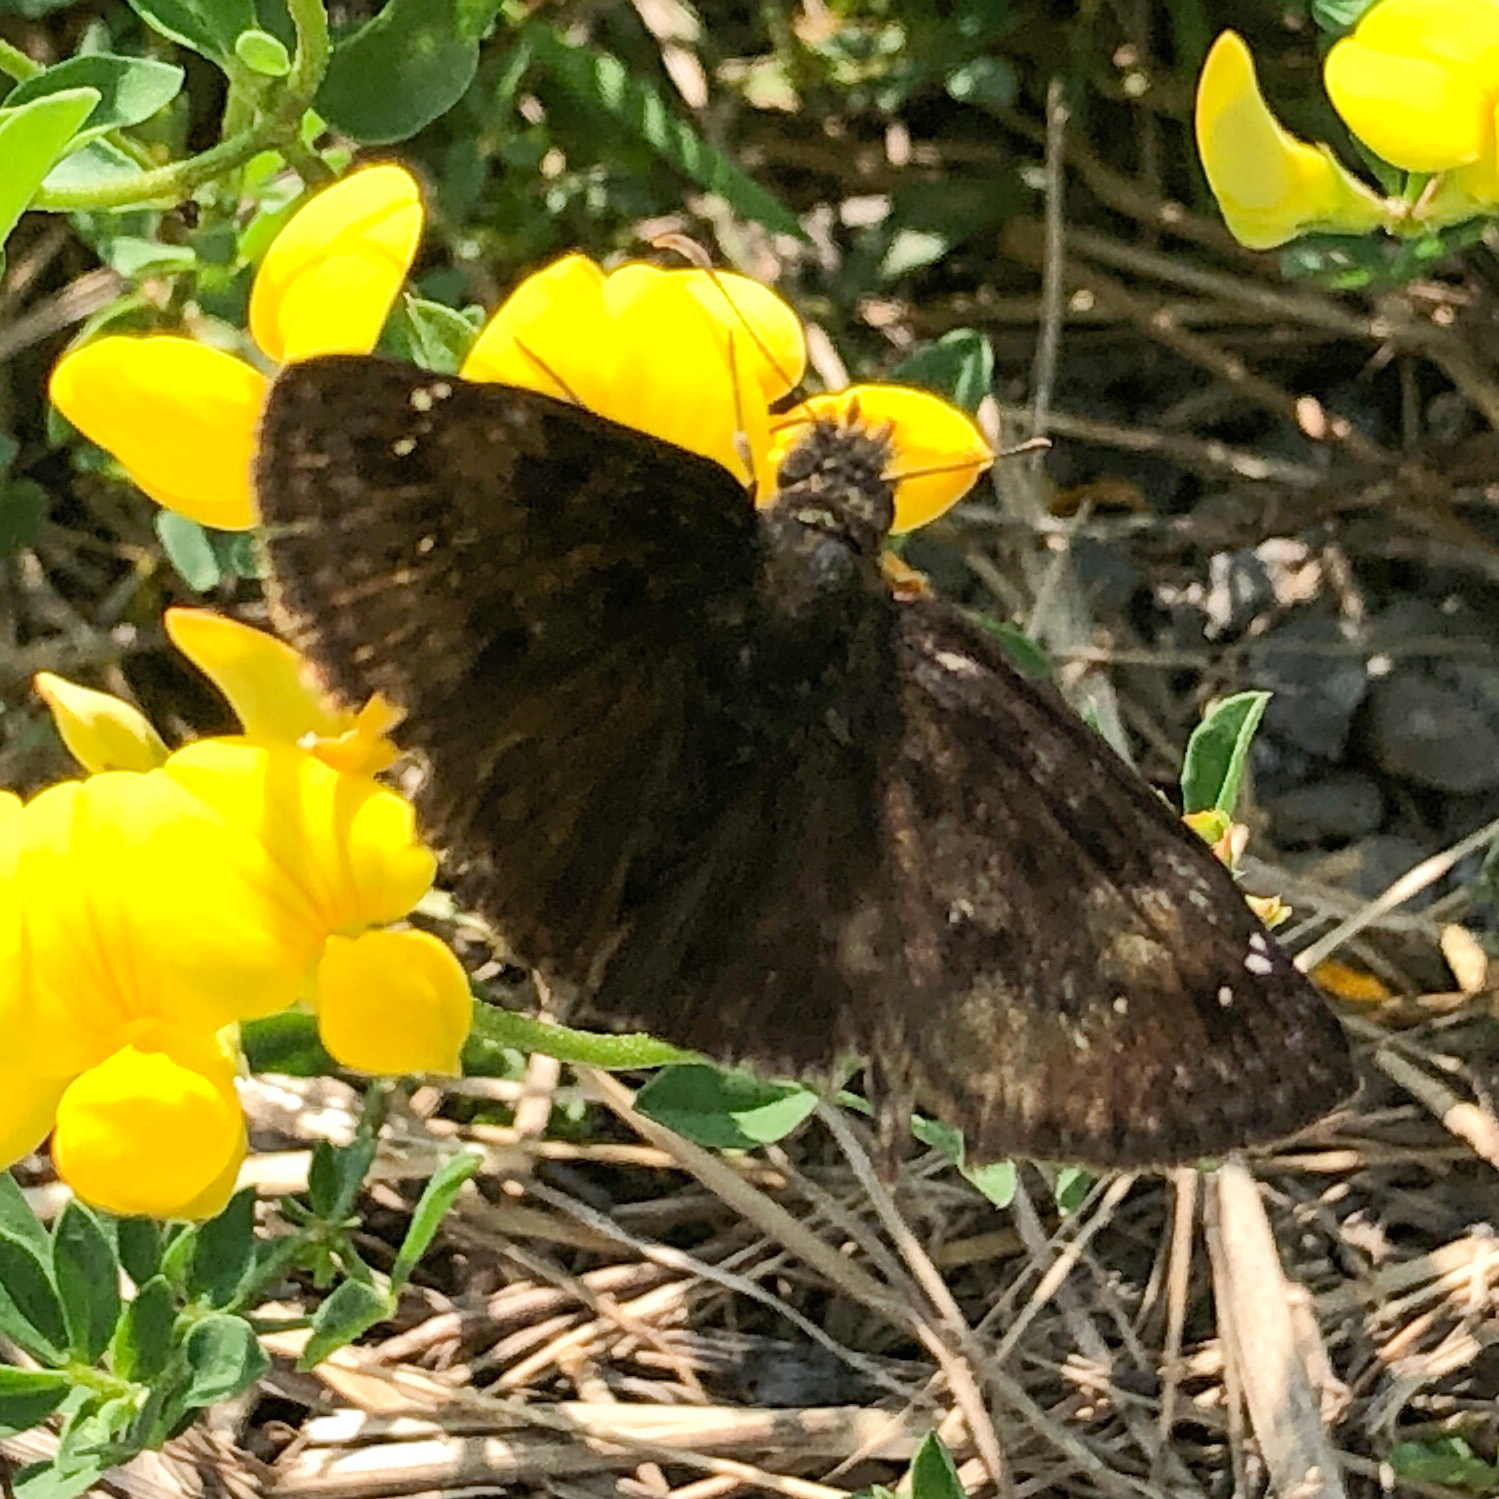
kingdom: Animalia
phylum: Arthropoda
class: Insecta
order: Lepidoptera
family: Hesperiidae
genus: Erynnis
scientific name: Erynnis baptisiae
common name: Wild indigo duskywing
